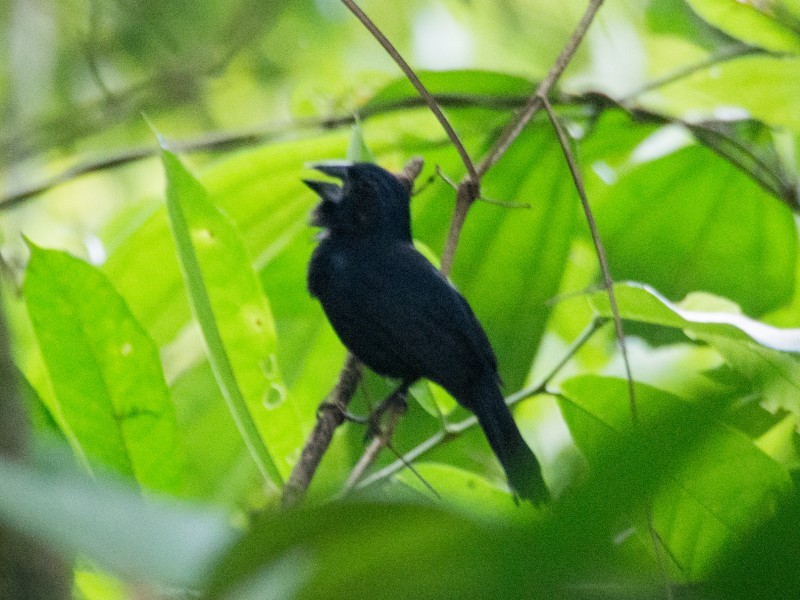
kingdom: Animalia
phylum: Chordata
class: Aves
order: Passeriformes
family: Cardinalidae
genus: Cyanocompsa
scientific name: Cyanocompsa cyanoides
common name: Blue-black grosbeak
